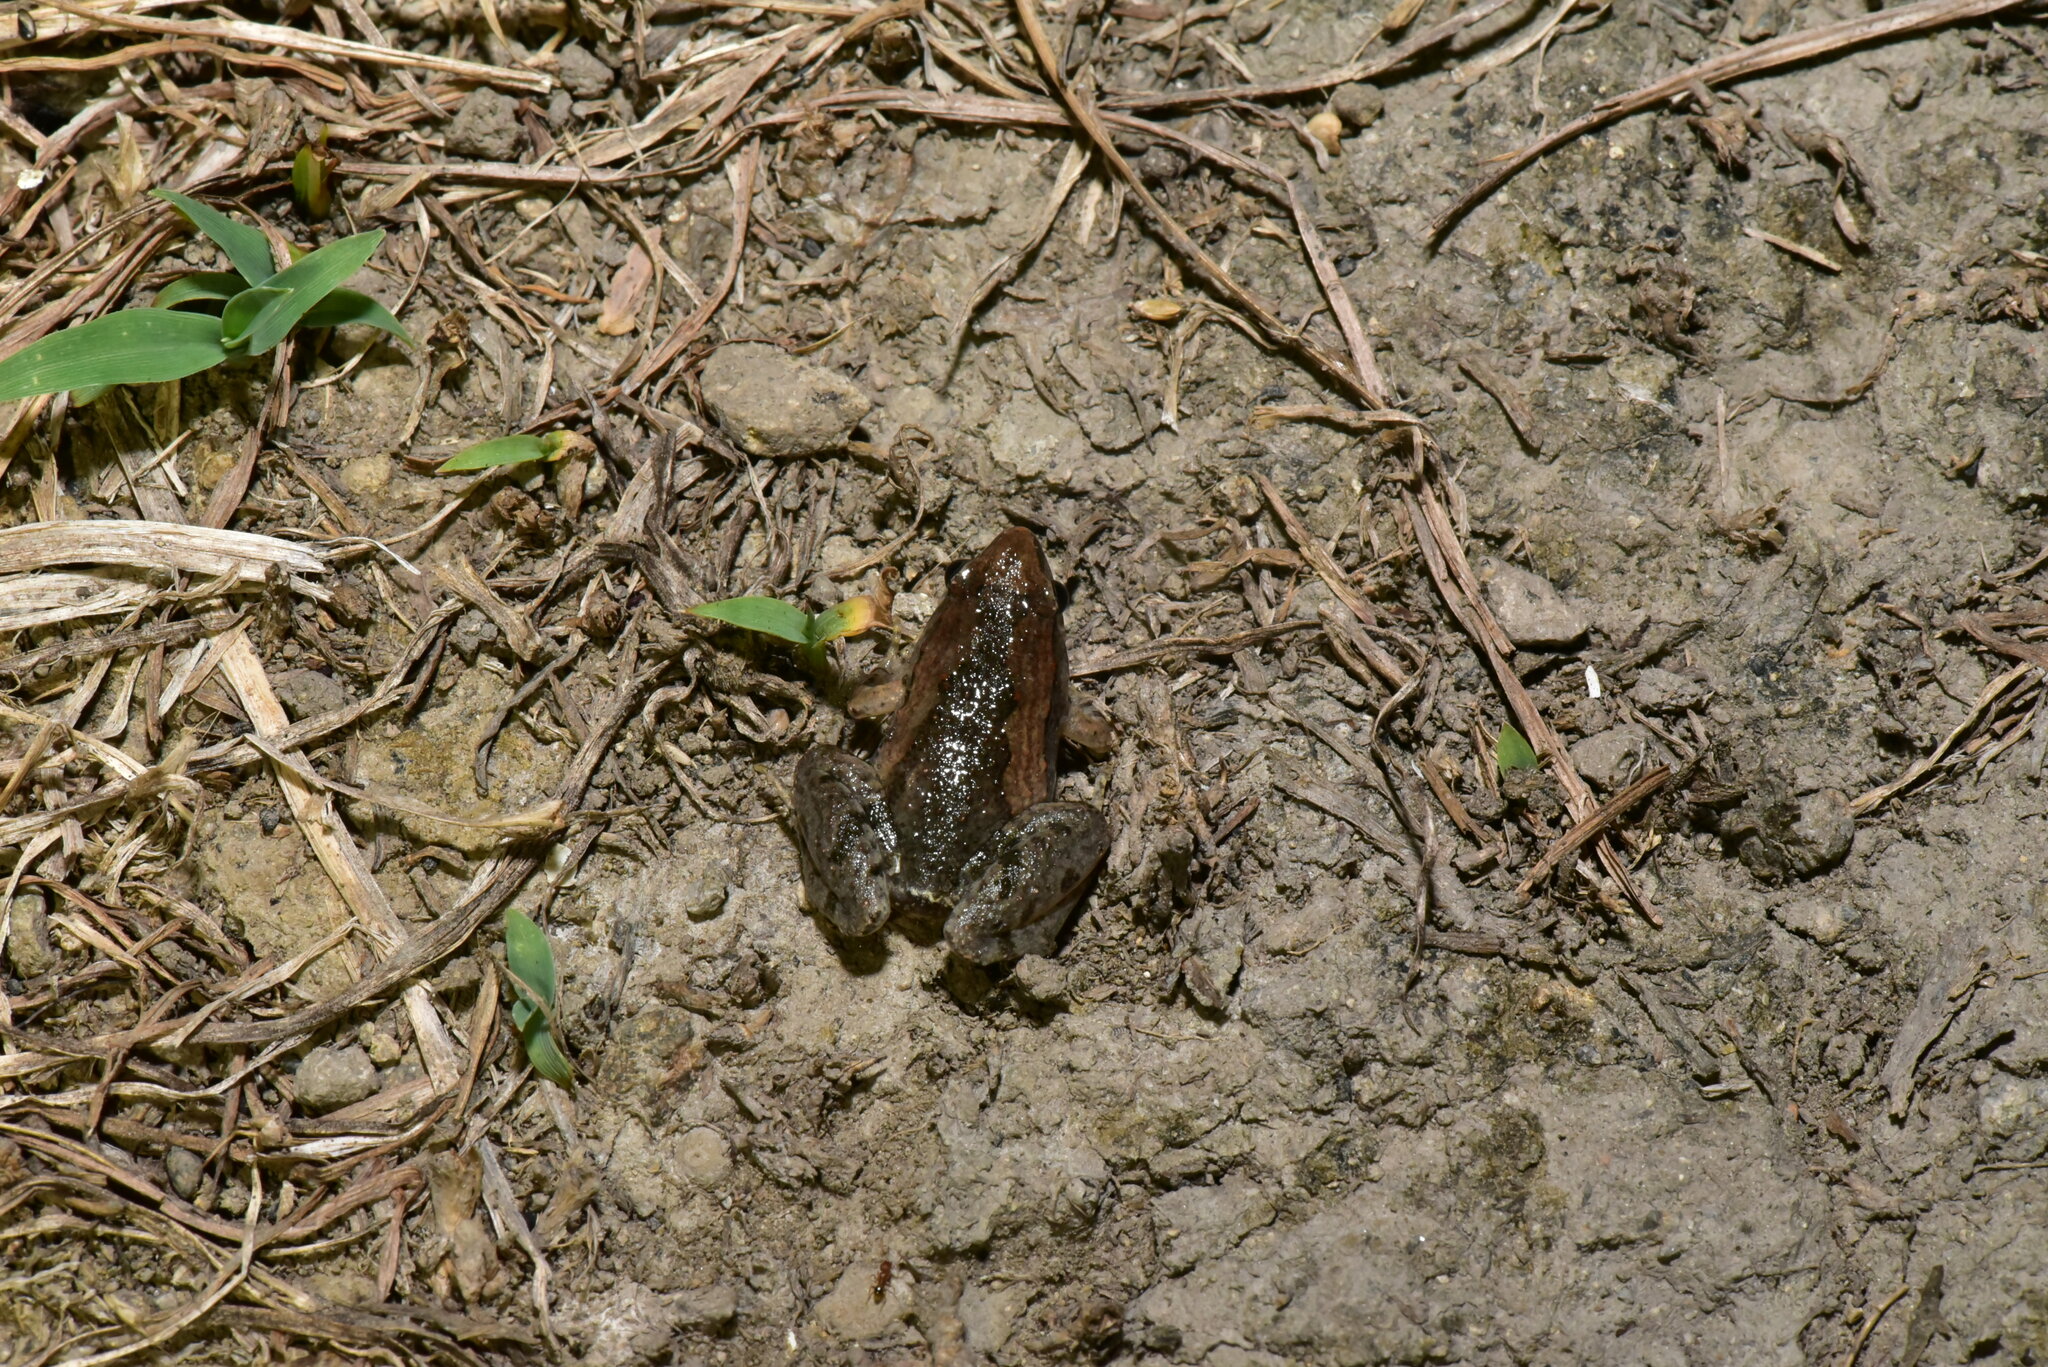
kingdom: Animalia
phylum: Chordata
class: Amphibia
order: Anura
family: Microhylidae
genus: Microhyla
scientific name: Microhyla fissipes
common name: Ornate narrow-mouthed frog
